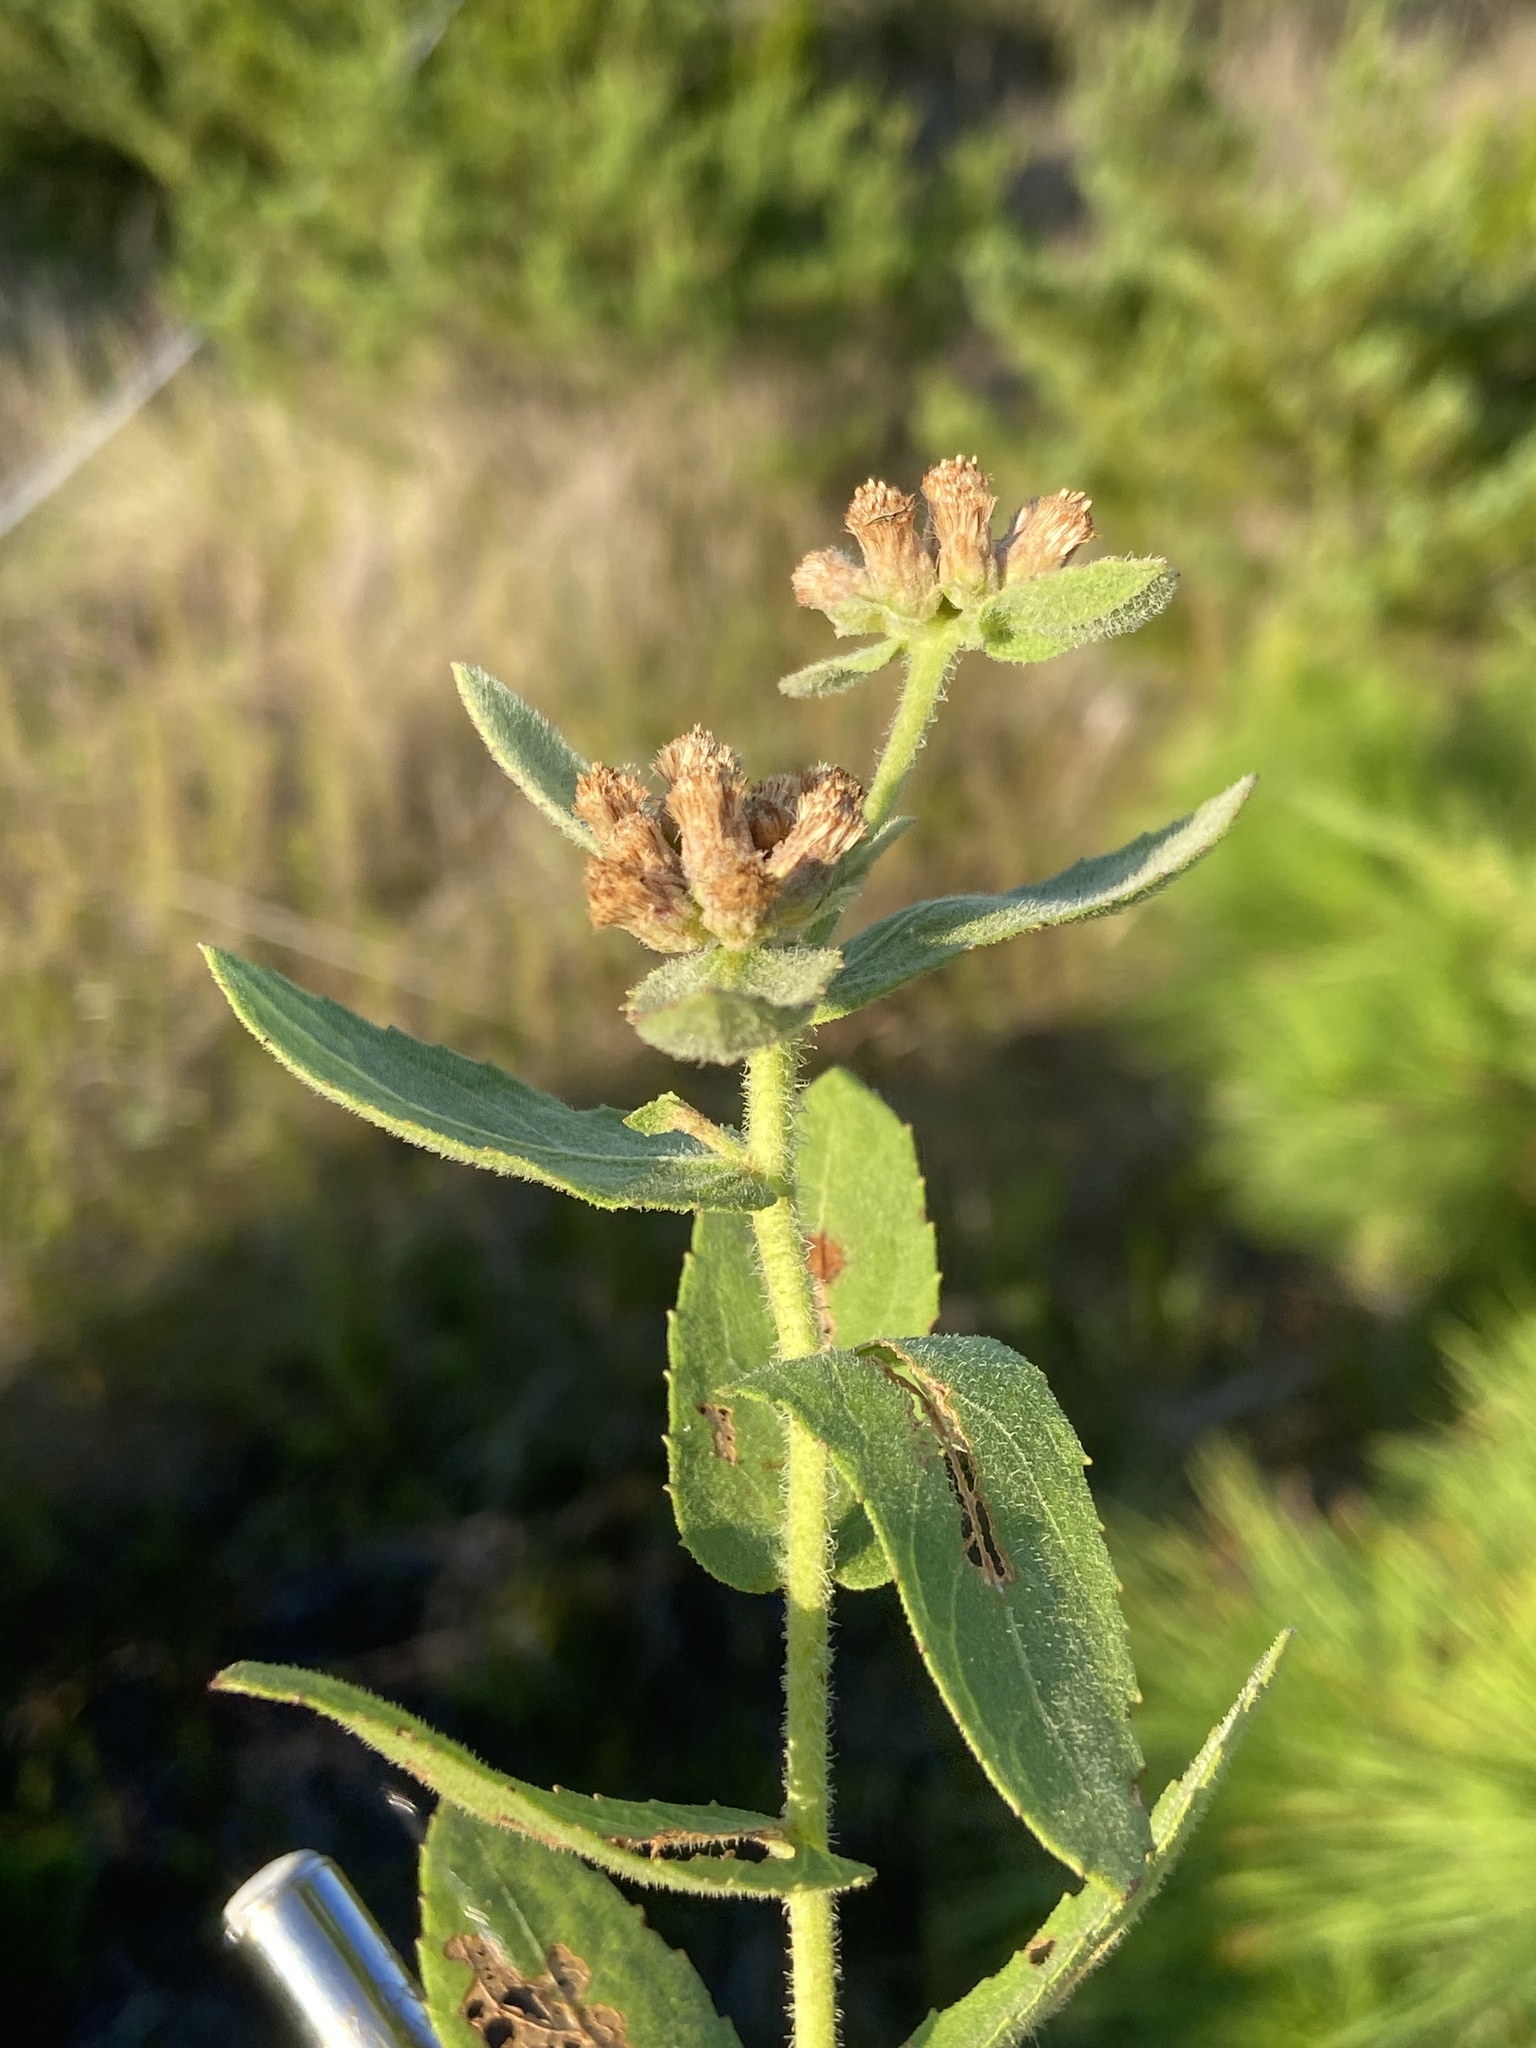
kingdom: Plantae
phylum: Tracheophyta
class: Magnoliopsida
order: Asterales
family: Asteraceae
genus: Pluchea
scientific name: Pluchea baccharis
